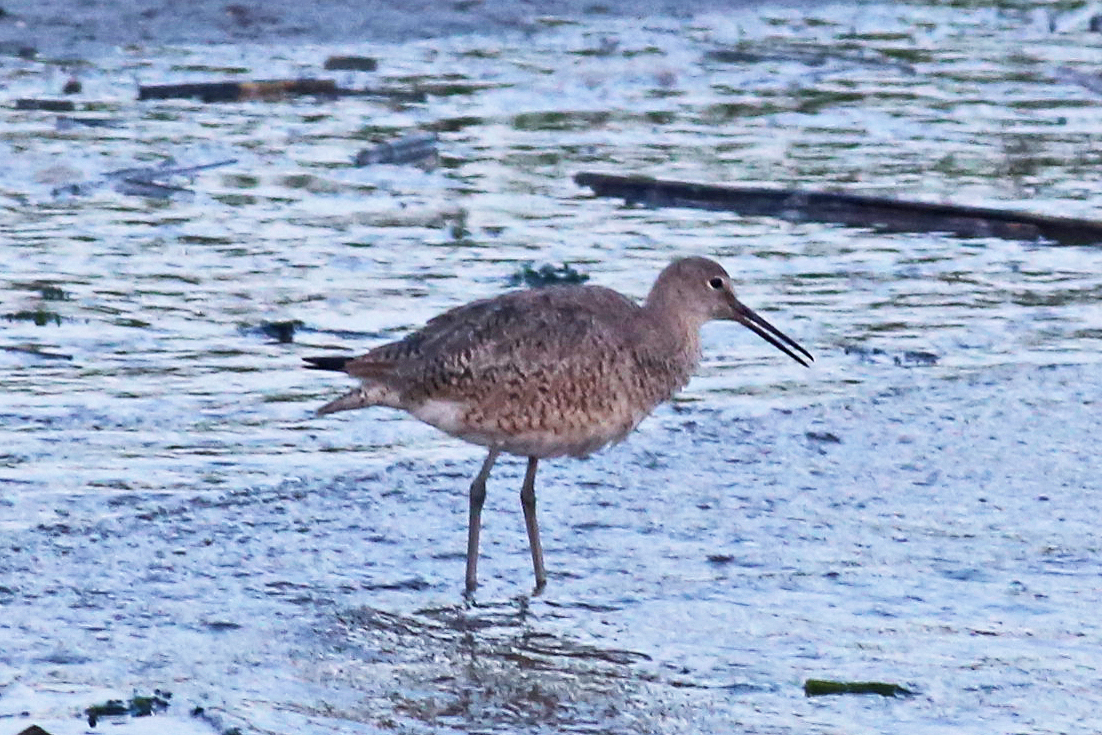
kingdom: Animalia
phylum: Chordata
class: Aves
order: Charadriiformes
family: Scolopacidae
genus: Tringa
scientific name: Tringa semipalmata
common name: Willet
